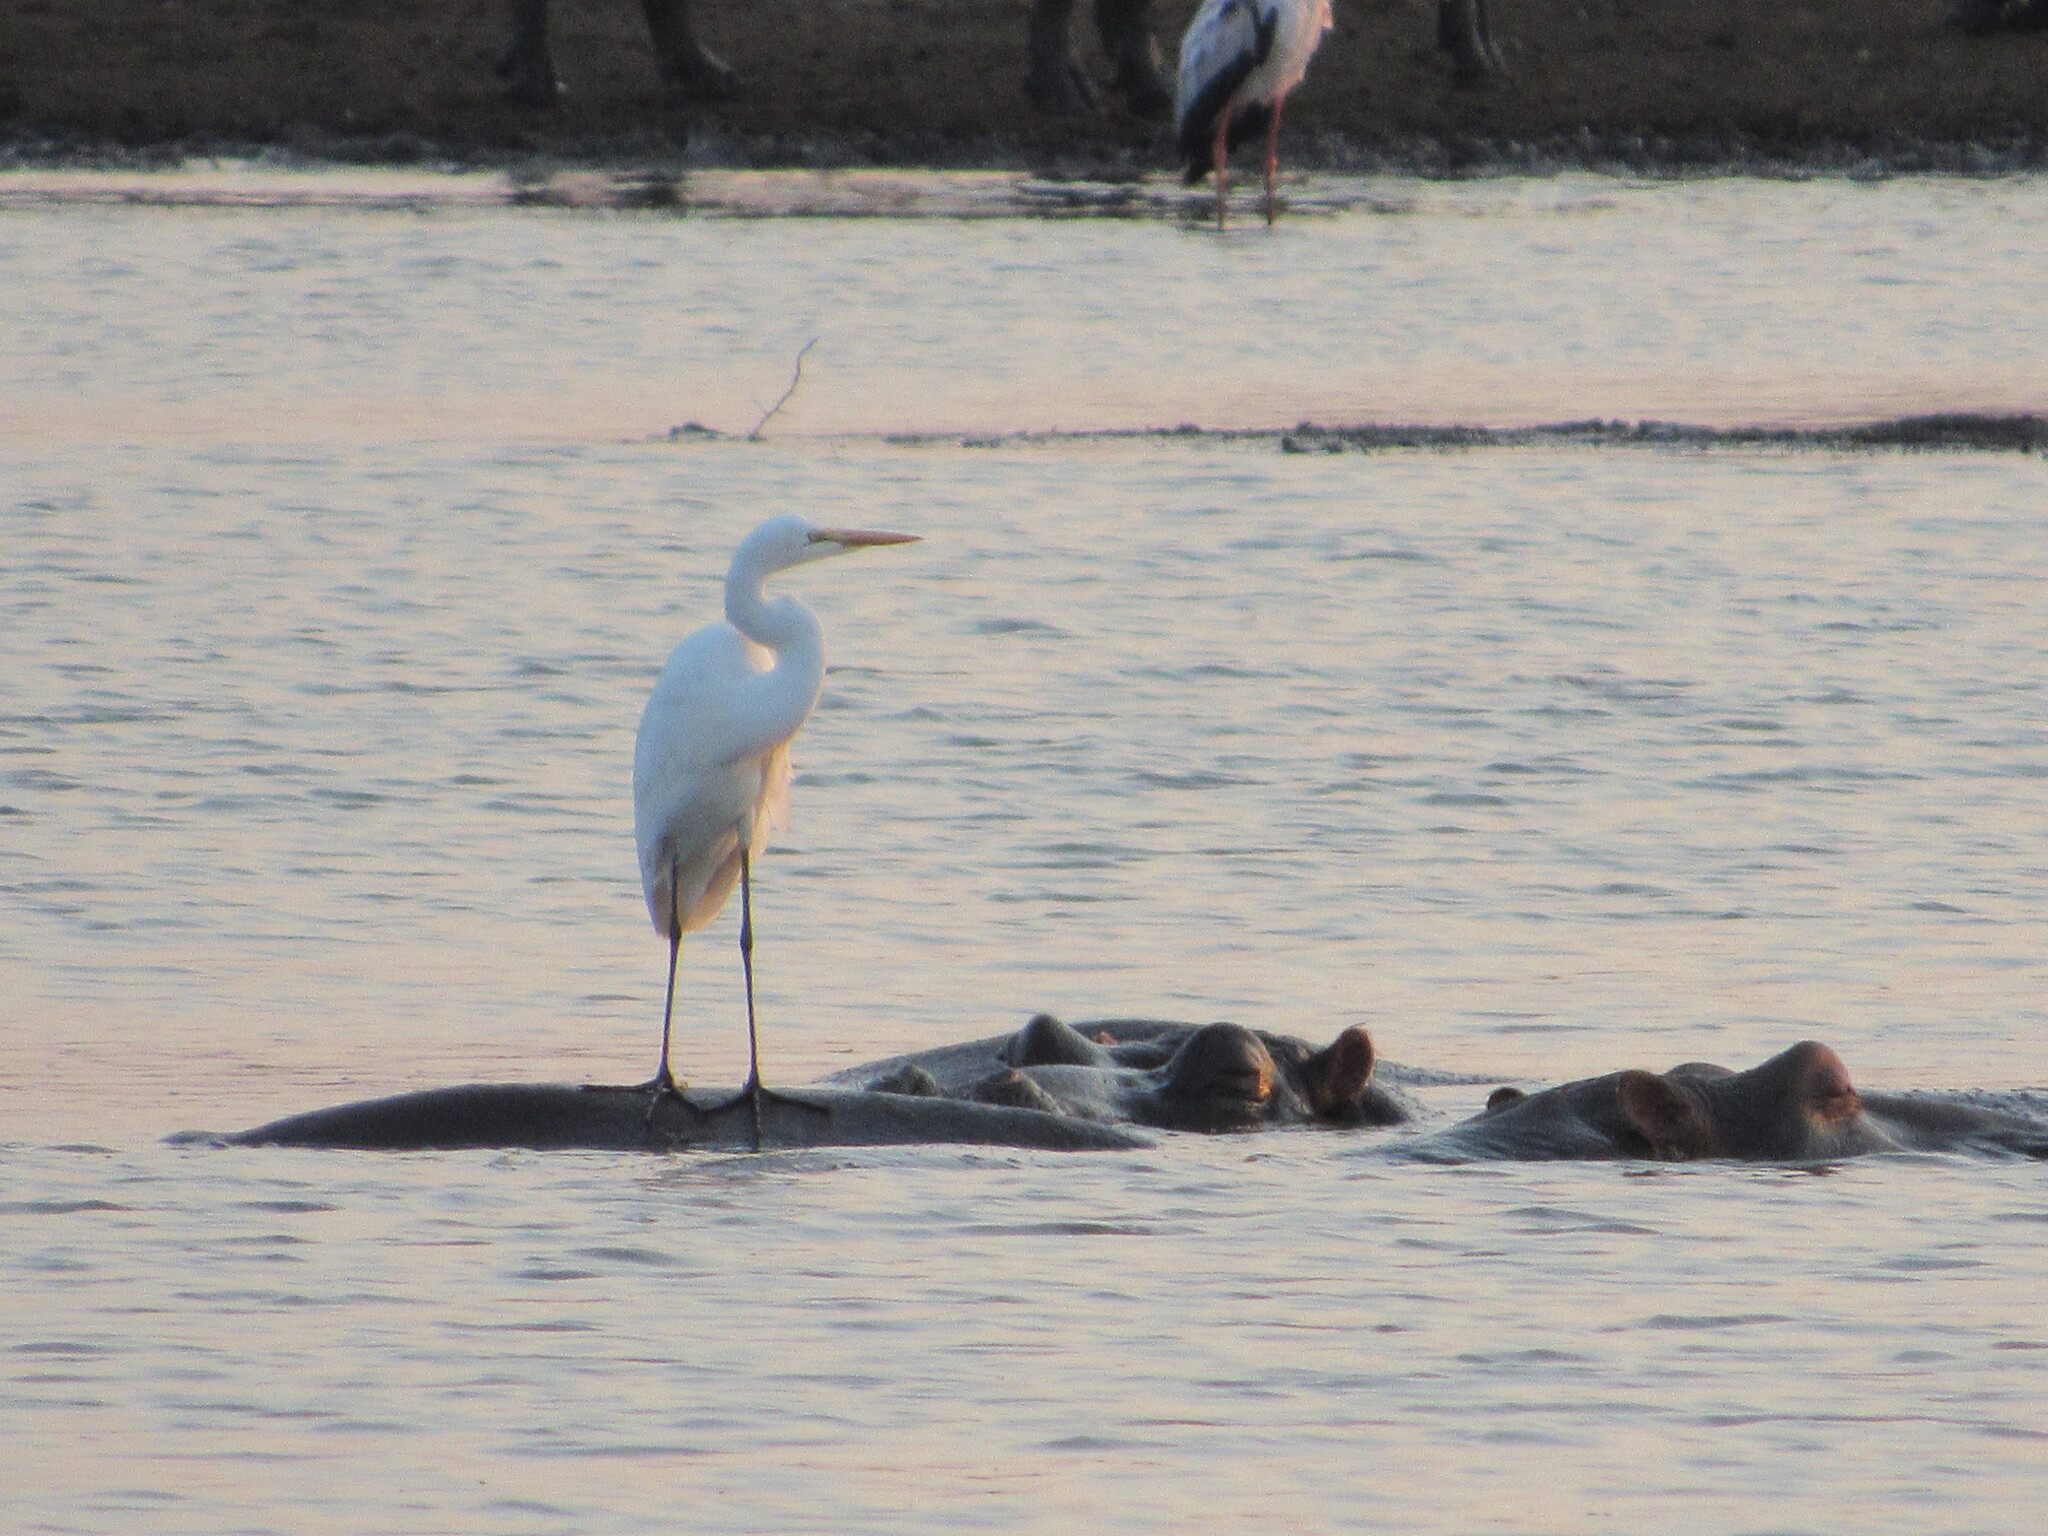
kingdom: Animalia
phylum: Chordata
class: Aves
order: Pelecaniformes
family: Ardeidae
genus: Bubulcus
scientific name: Bubulcus ibis
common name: Cattle egret
